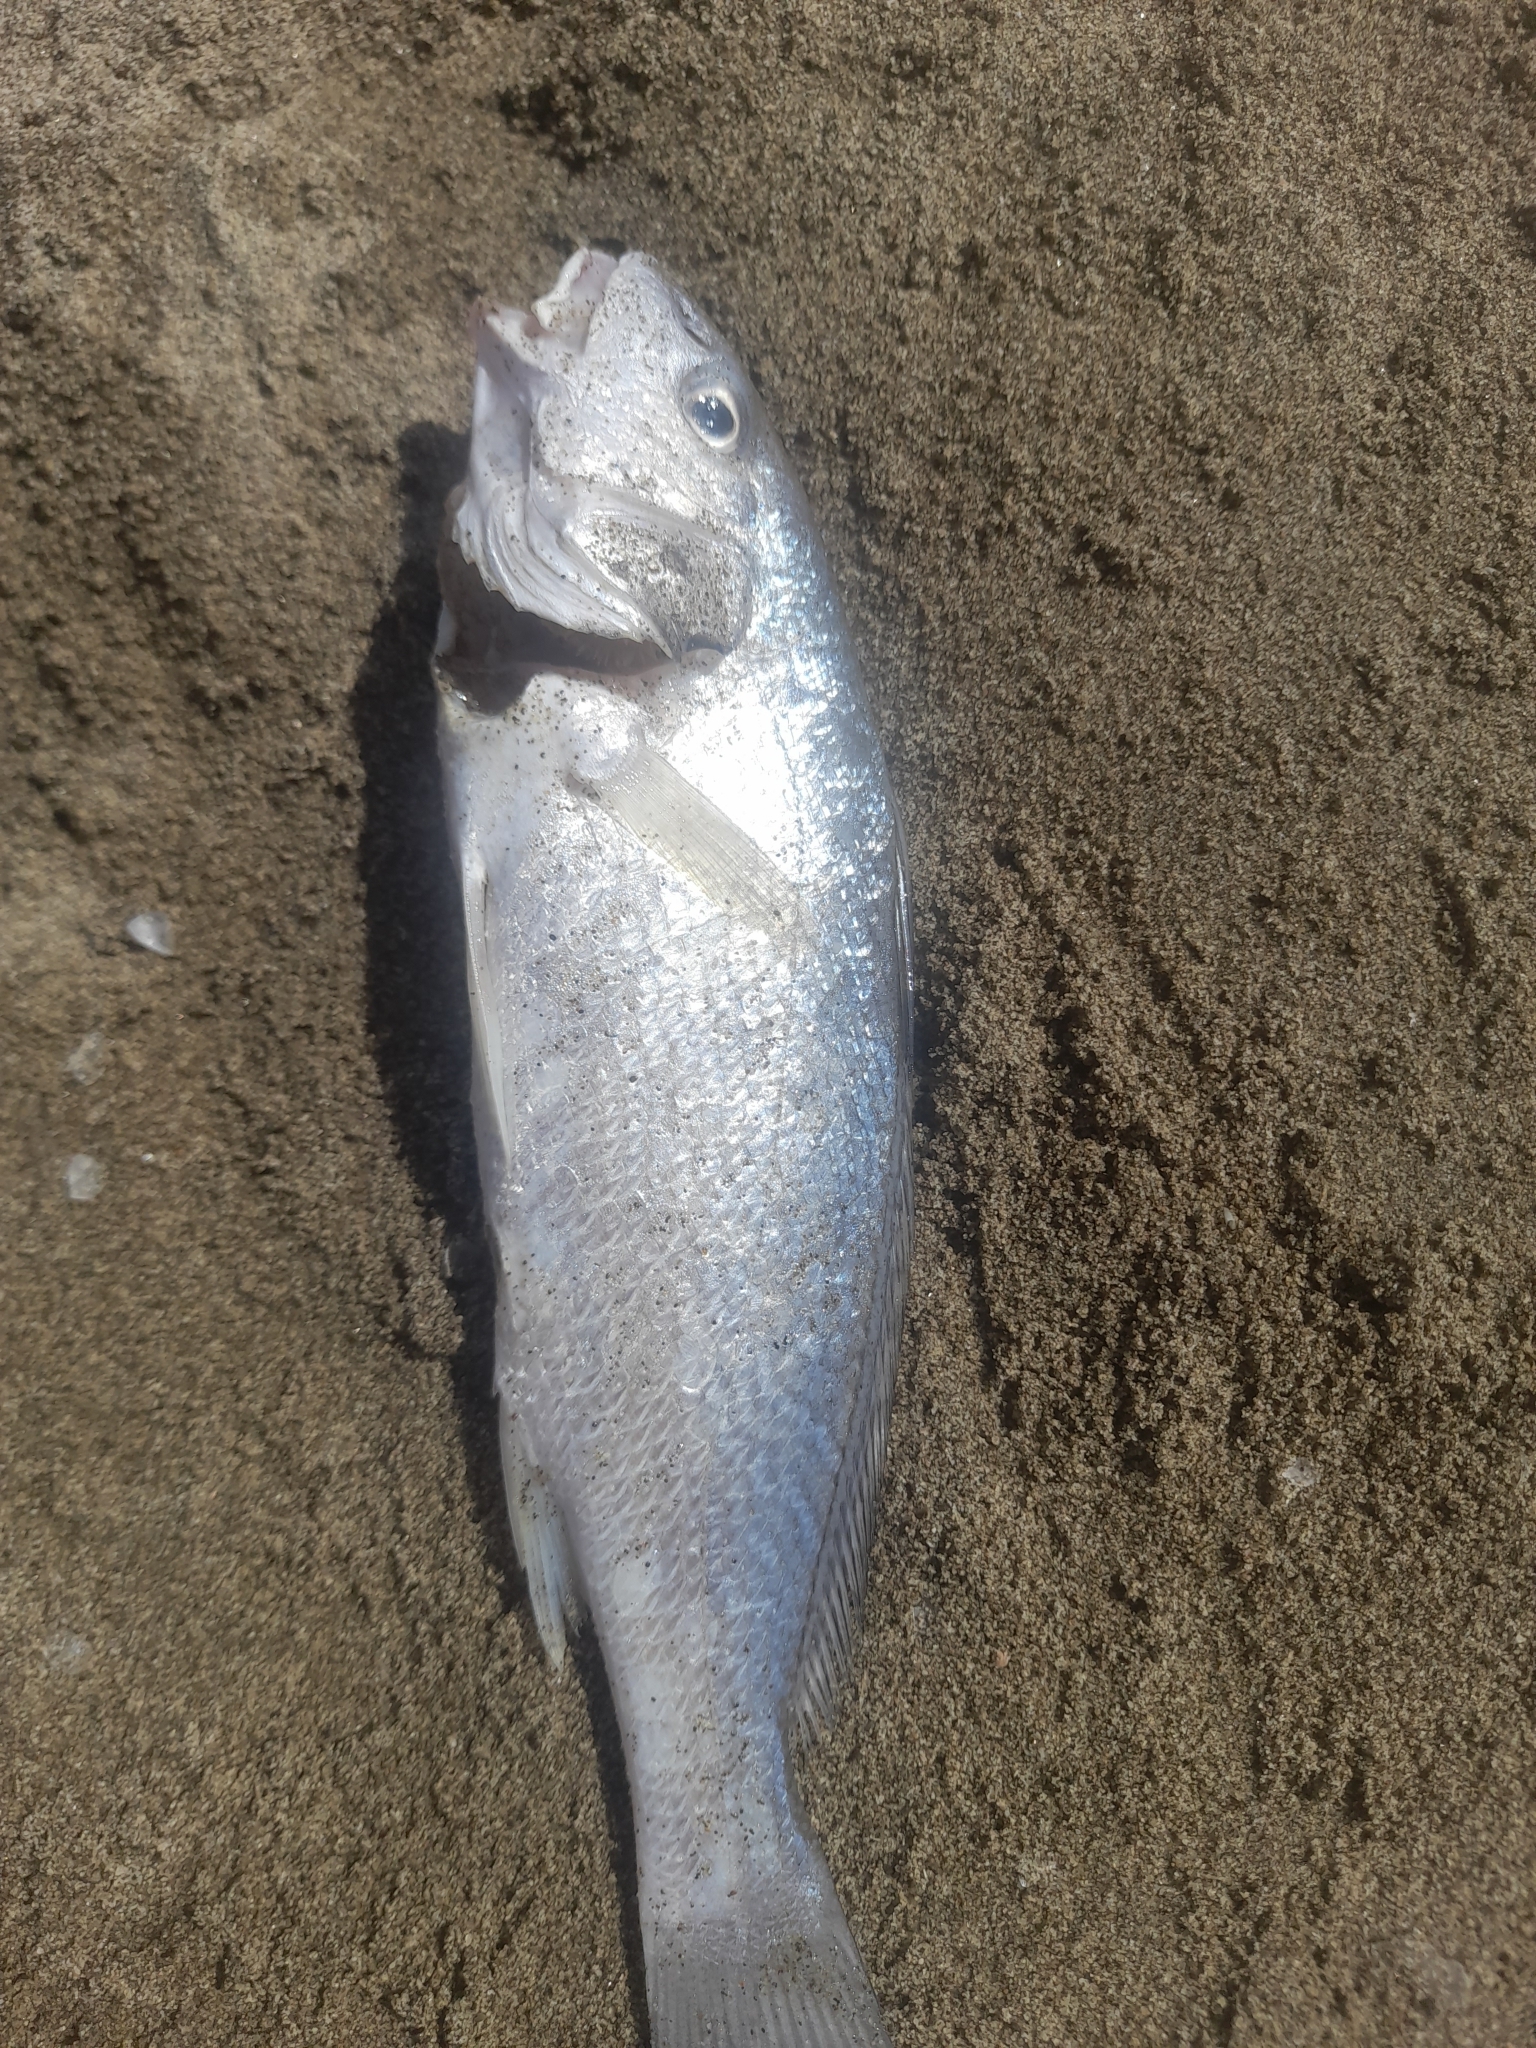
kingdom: Animalia
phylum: Chordata
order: Perciformes
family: Sciaenidae
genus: Umbrina
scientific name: Umbrina cirrosa
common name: Shi drum
